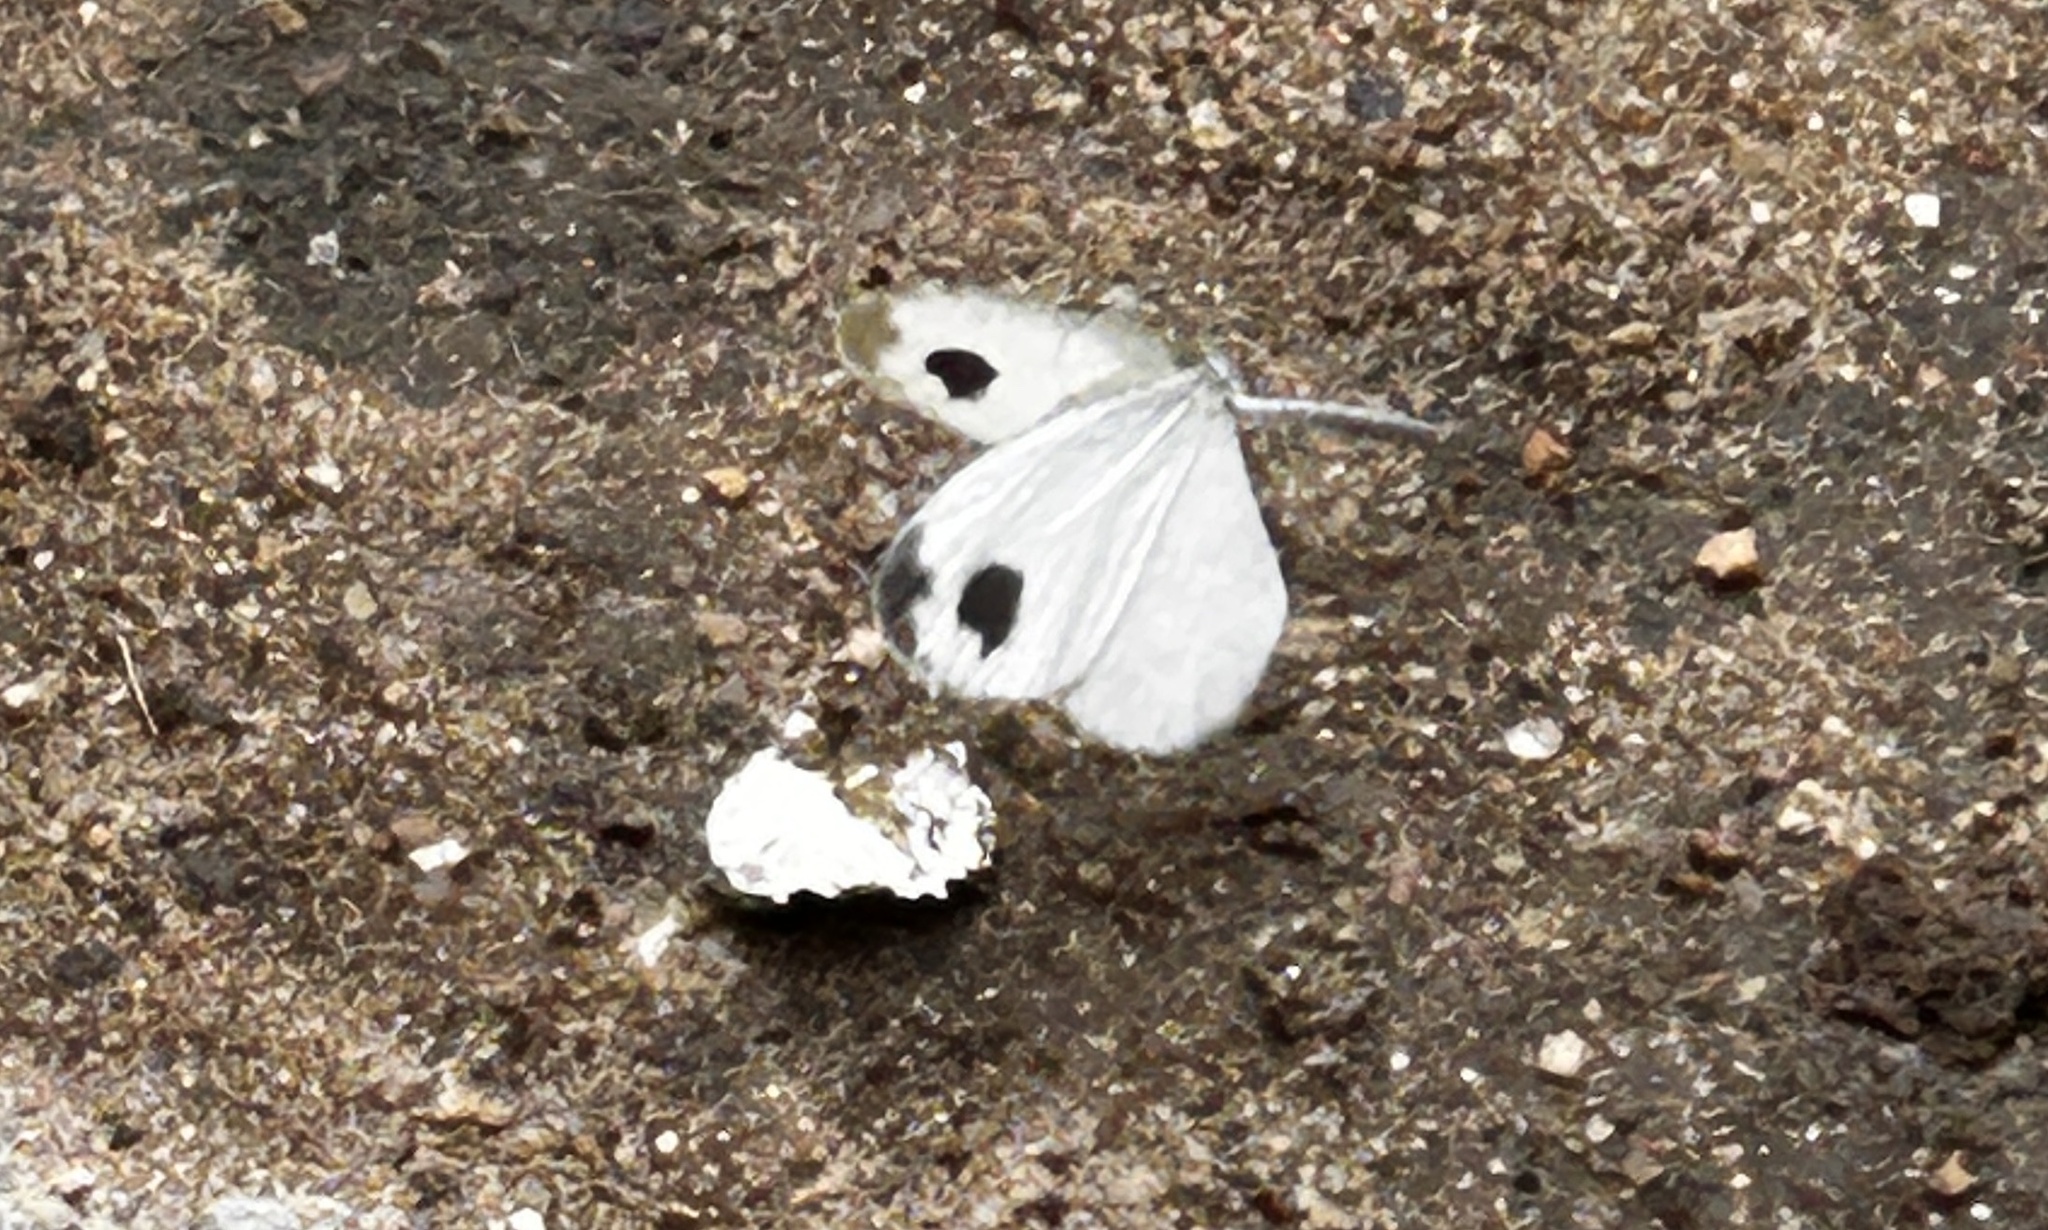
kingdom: Animalia
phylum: Arthropoda
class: Insecta
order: Lepidoptera
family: Pieridae
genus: Leptosia
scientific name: Leptosia nina
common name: Psyche
